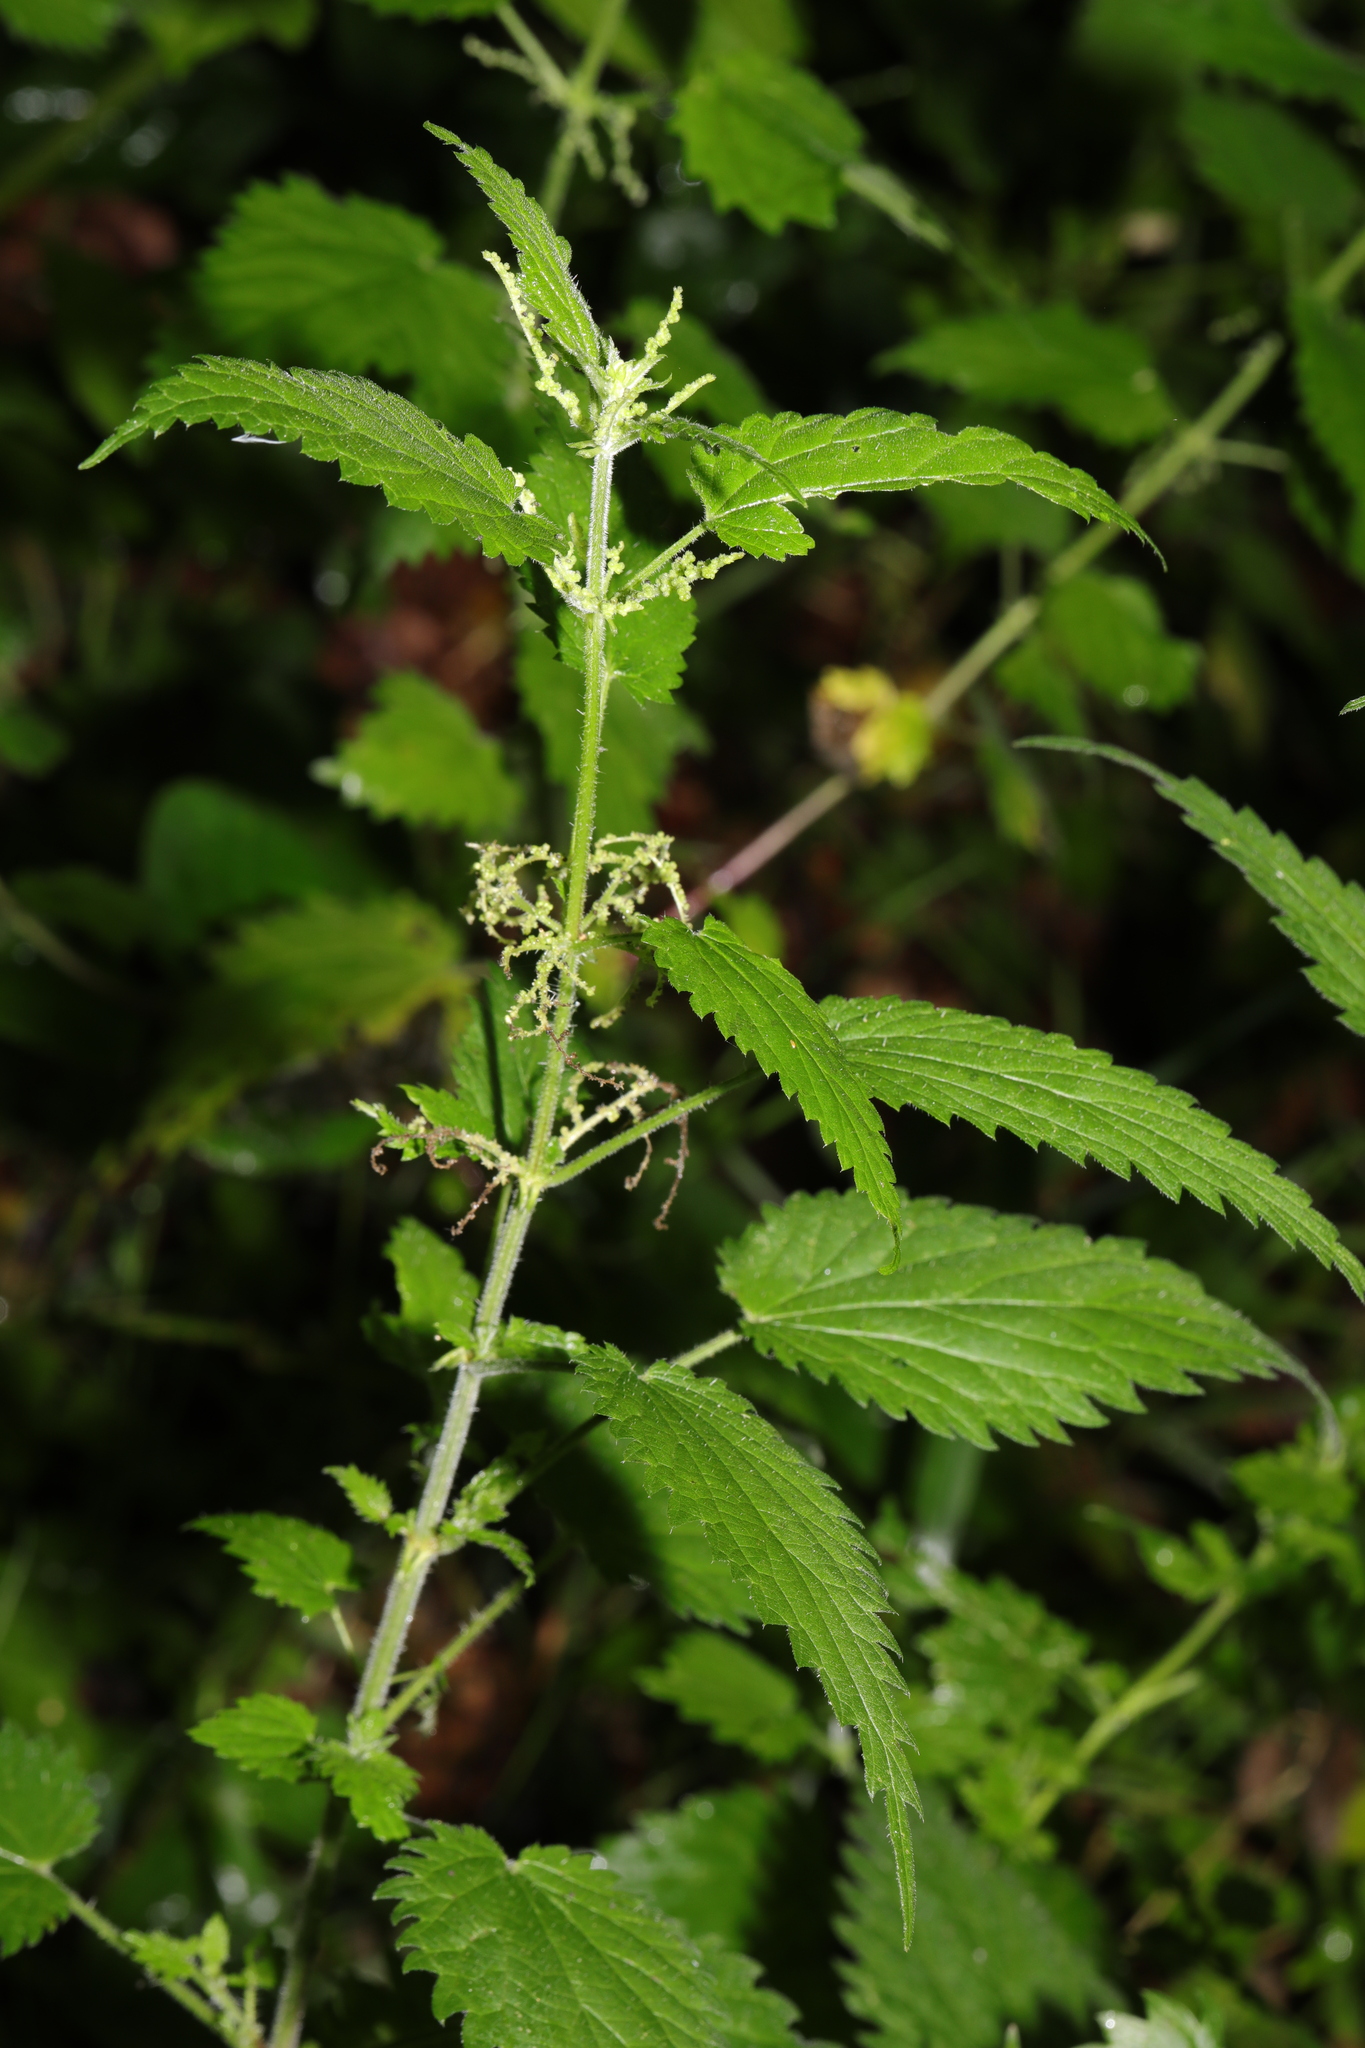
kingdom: Plantae
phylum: Tracheophyta
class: Magnoliopsida
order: Rosales
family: Urticaceae
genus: Urtica
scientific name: Urtica dioica
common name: Common nettle
